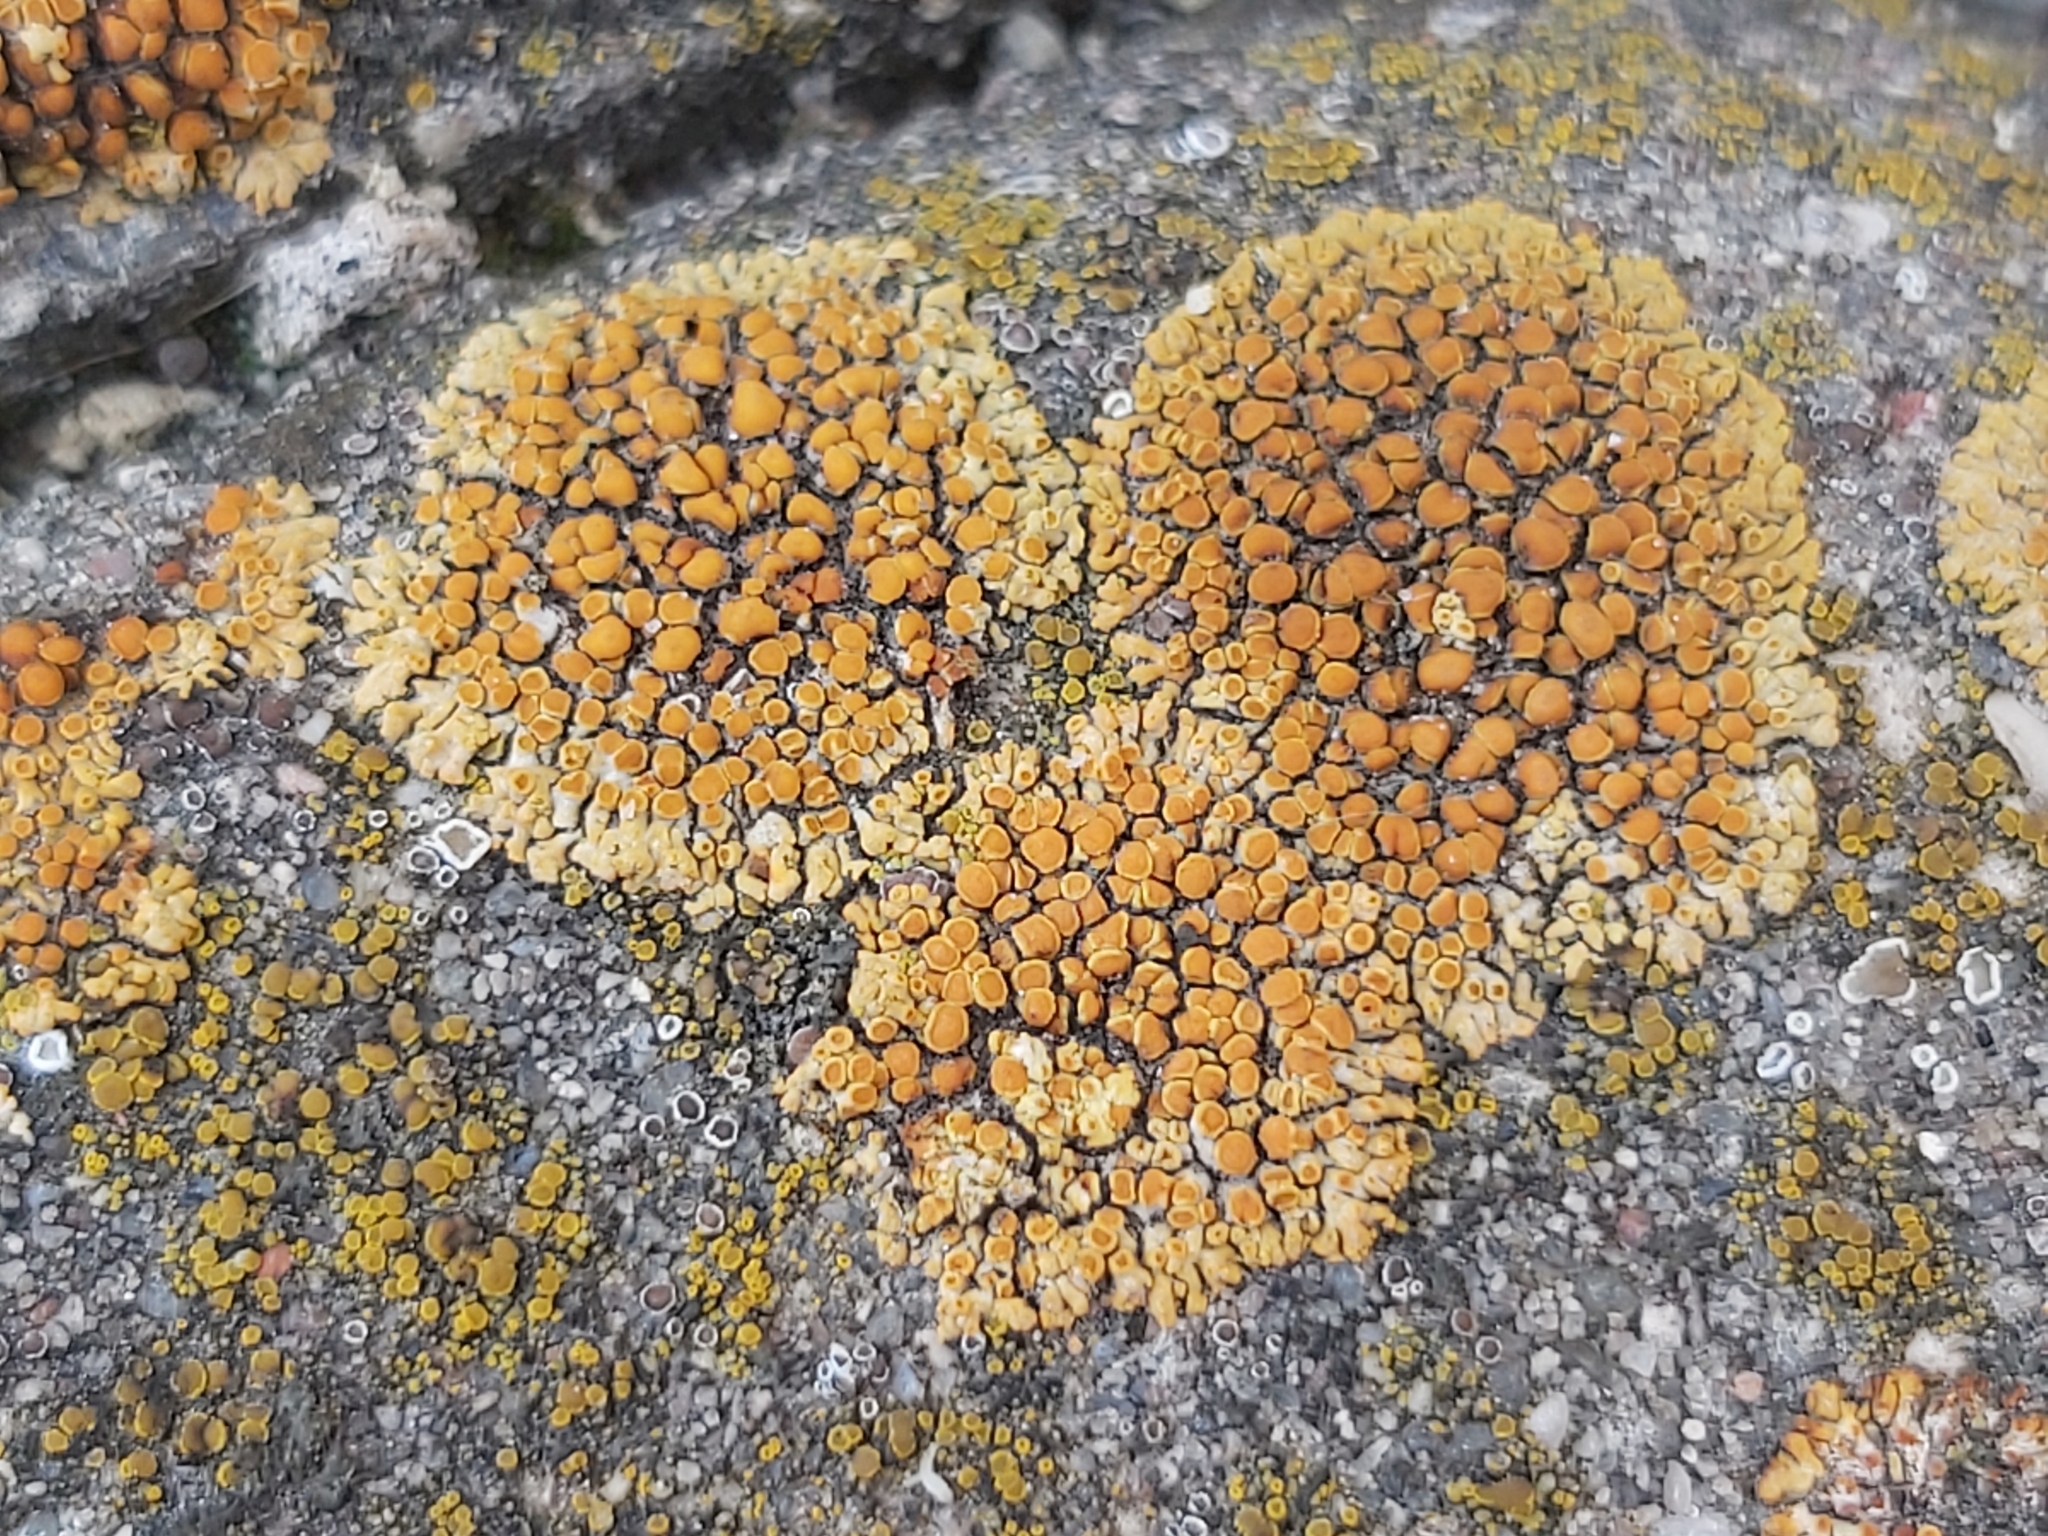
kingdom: Fungi
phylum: Ascomycota
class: Lecanoromycetes
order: Teloschistales
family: Teloschistaceae
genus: Calogaya
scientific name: Calogaya pusilla
